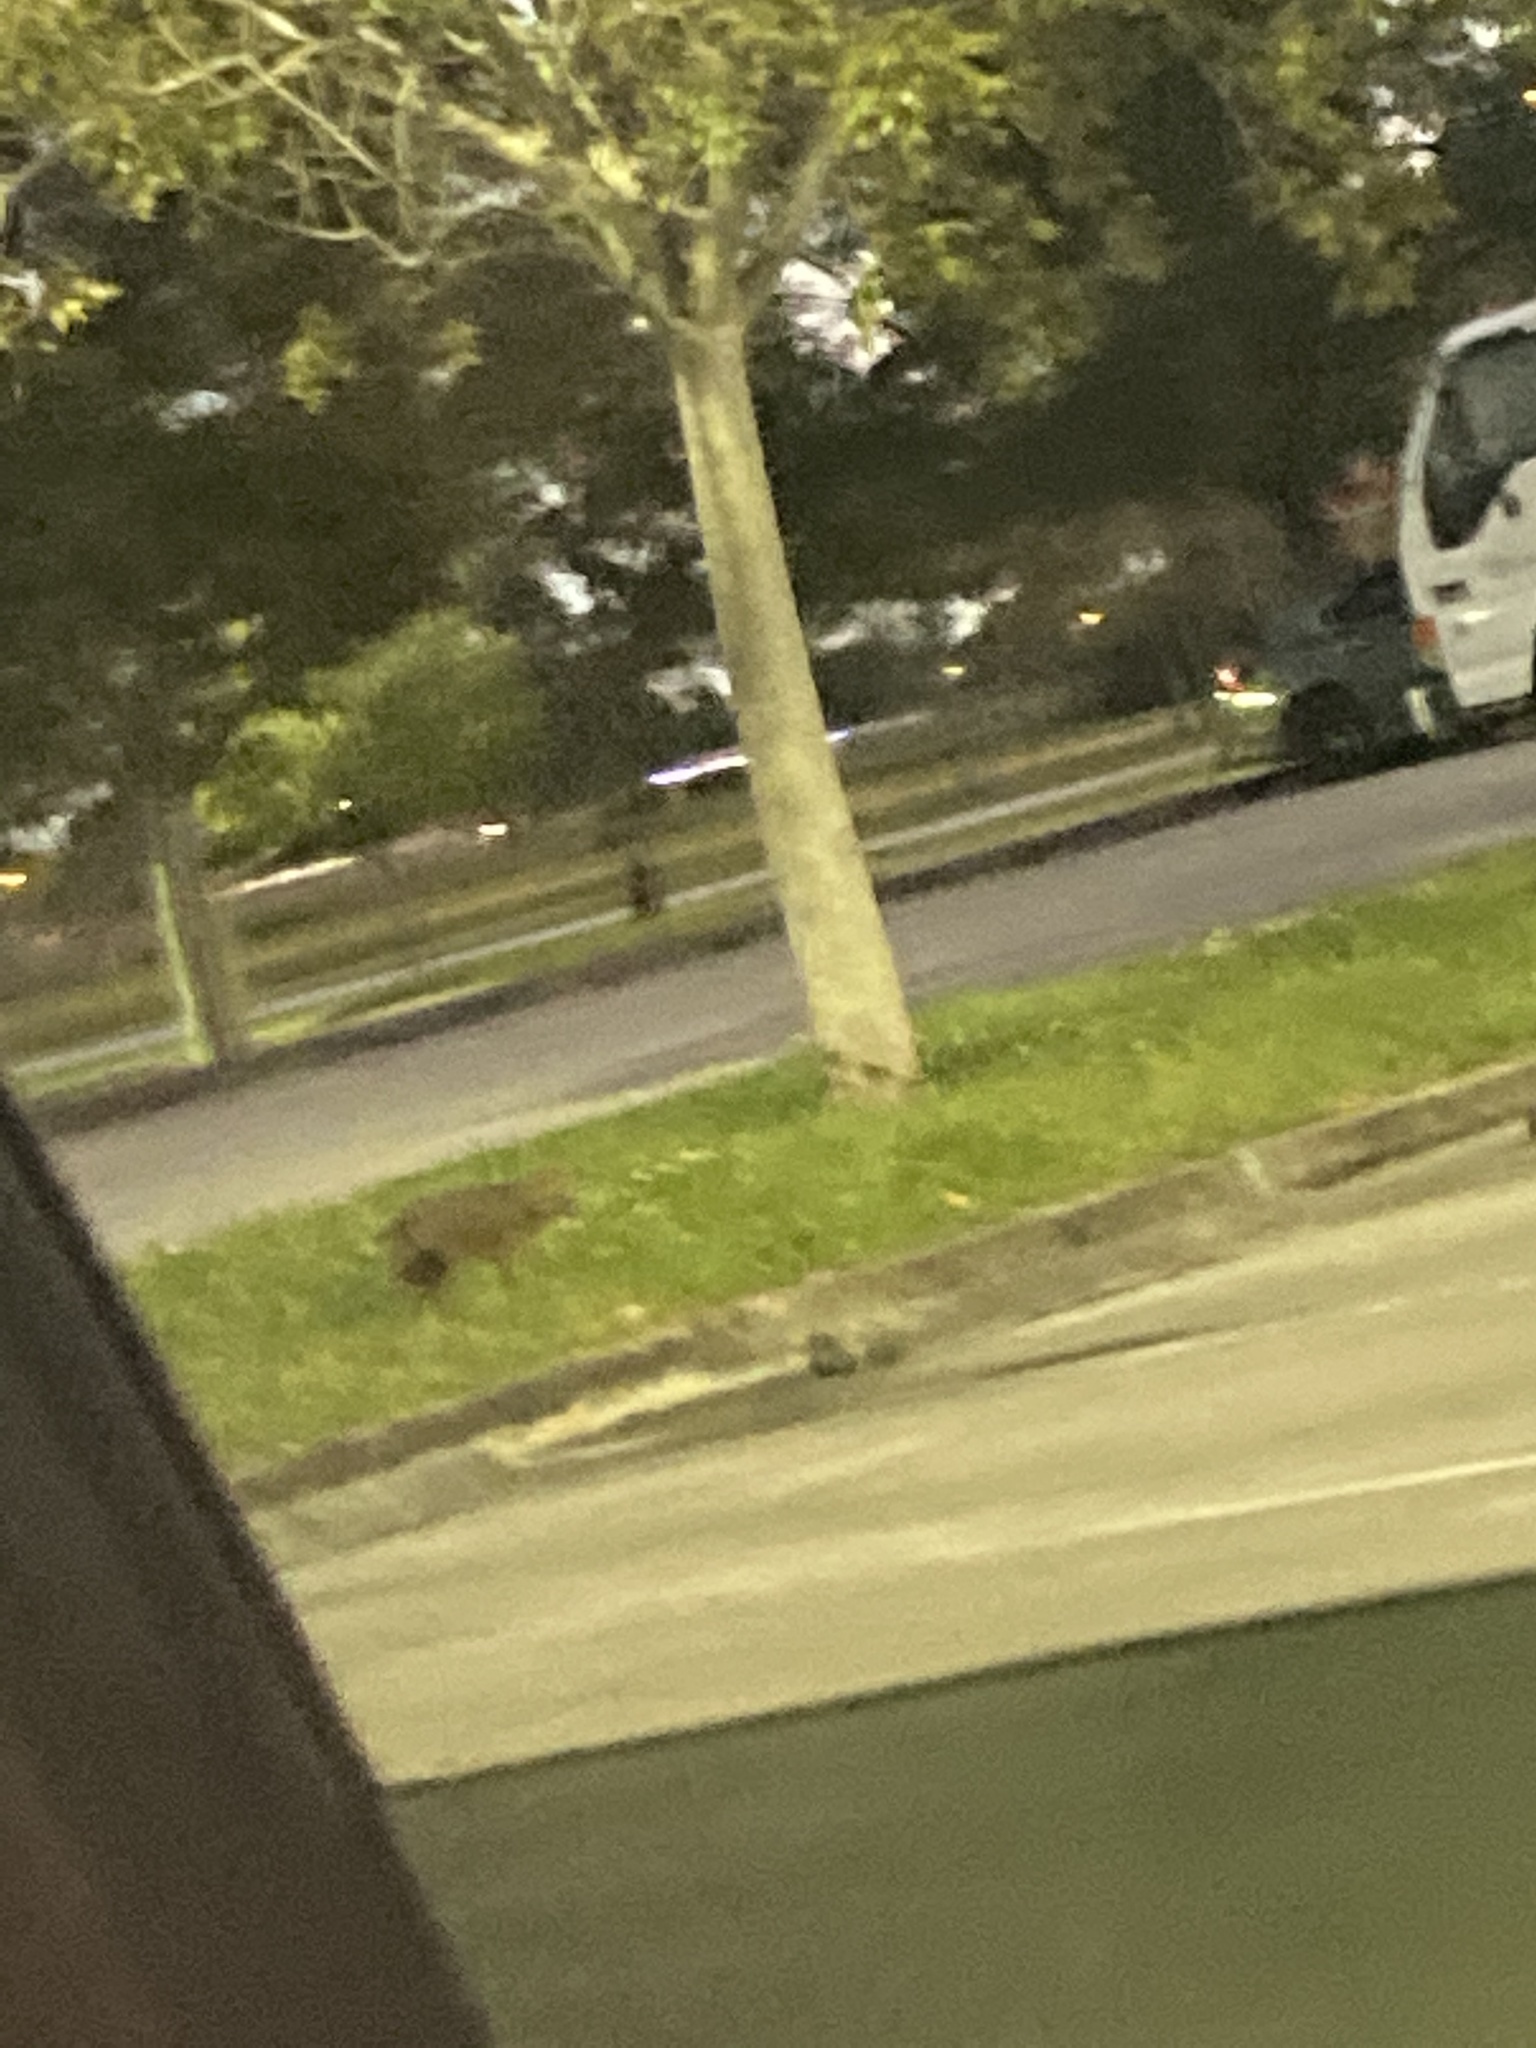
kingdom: Animalia
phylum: Chordata
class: Mammalia
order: Carnivora
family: Canidae
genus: Urocyon
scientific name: Urocyon cinereoargenteus
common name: Gray fox
